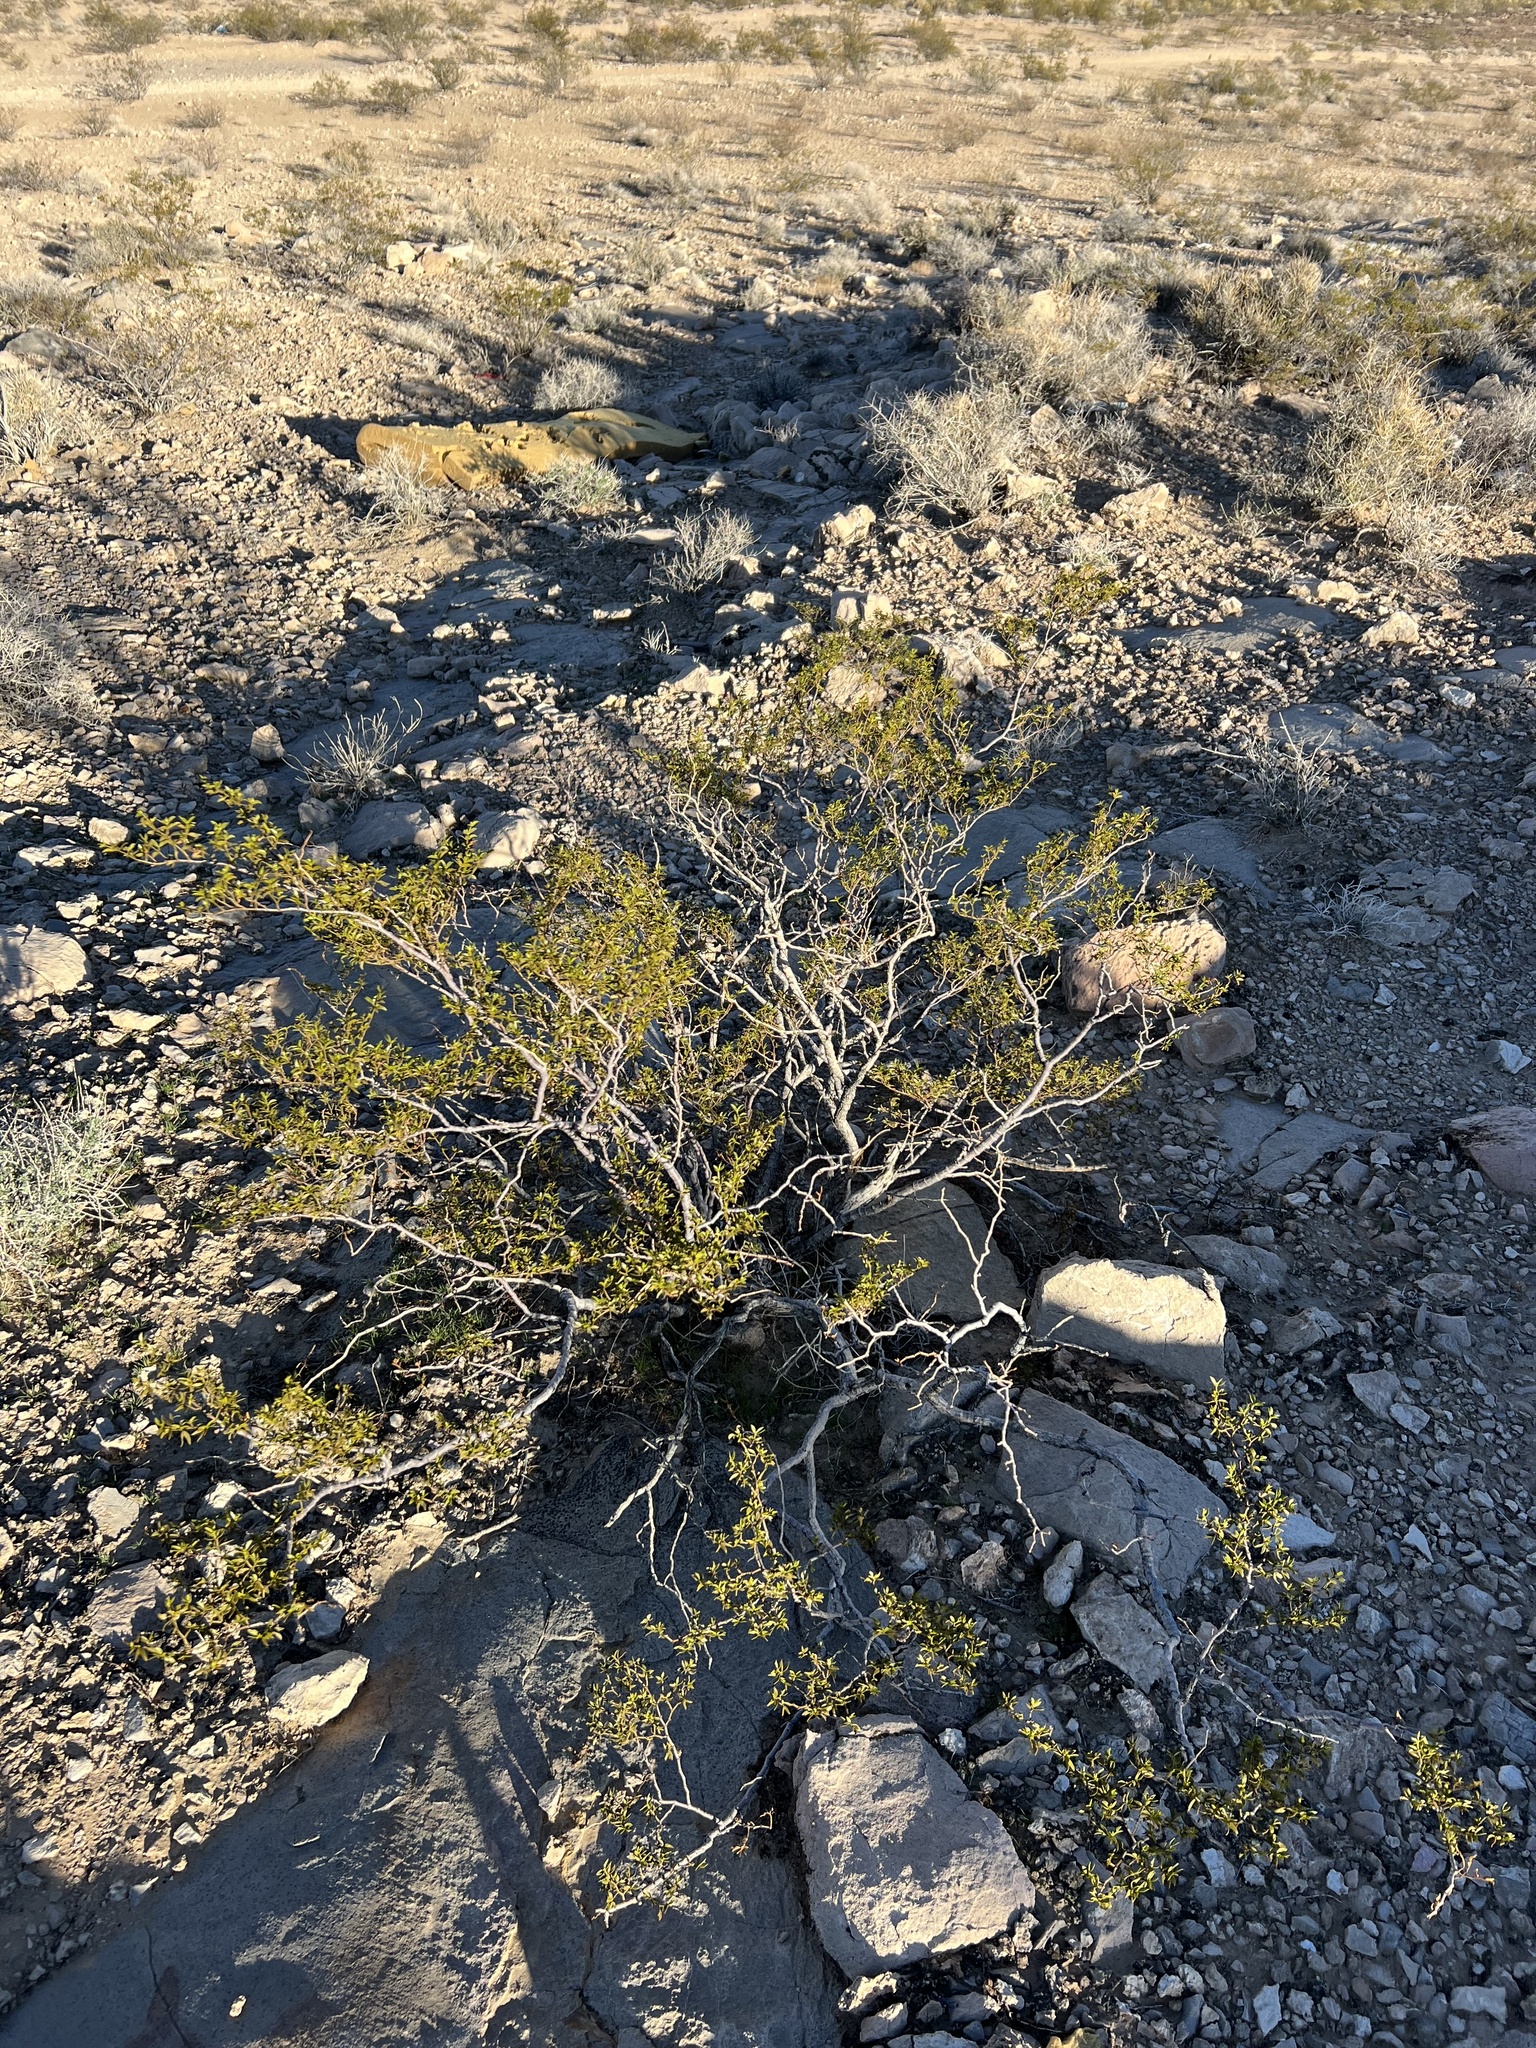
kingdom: Plantae
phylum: Tracheophyta
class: Magnoliopsida
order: Zygophyllales
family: Zygophyllaceae
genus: Larrea
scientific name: Larrea tridentata
